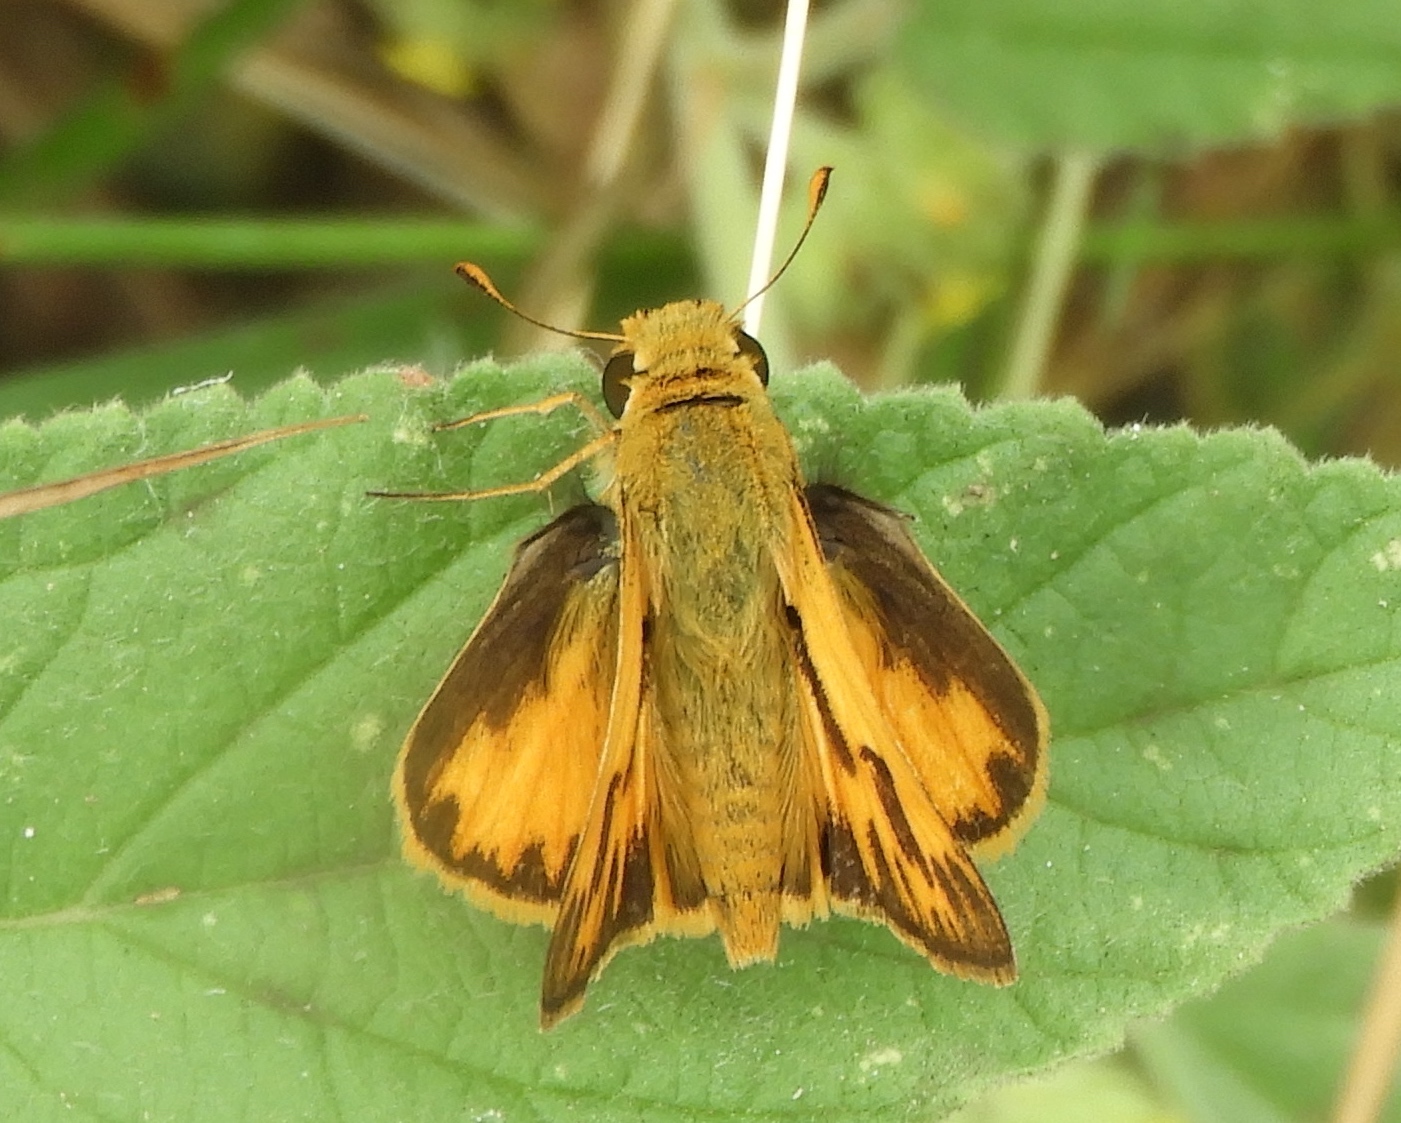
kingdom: Animalia
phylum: Arthropoda
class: Insecta
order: Lepidoptera
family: Hesperiidae
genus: Hylephila
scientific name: Hylephila phyleus
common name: Fiery skipper
